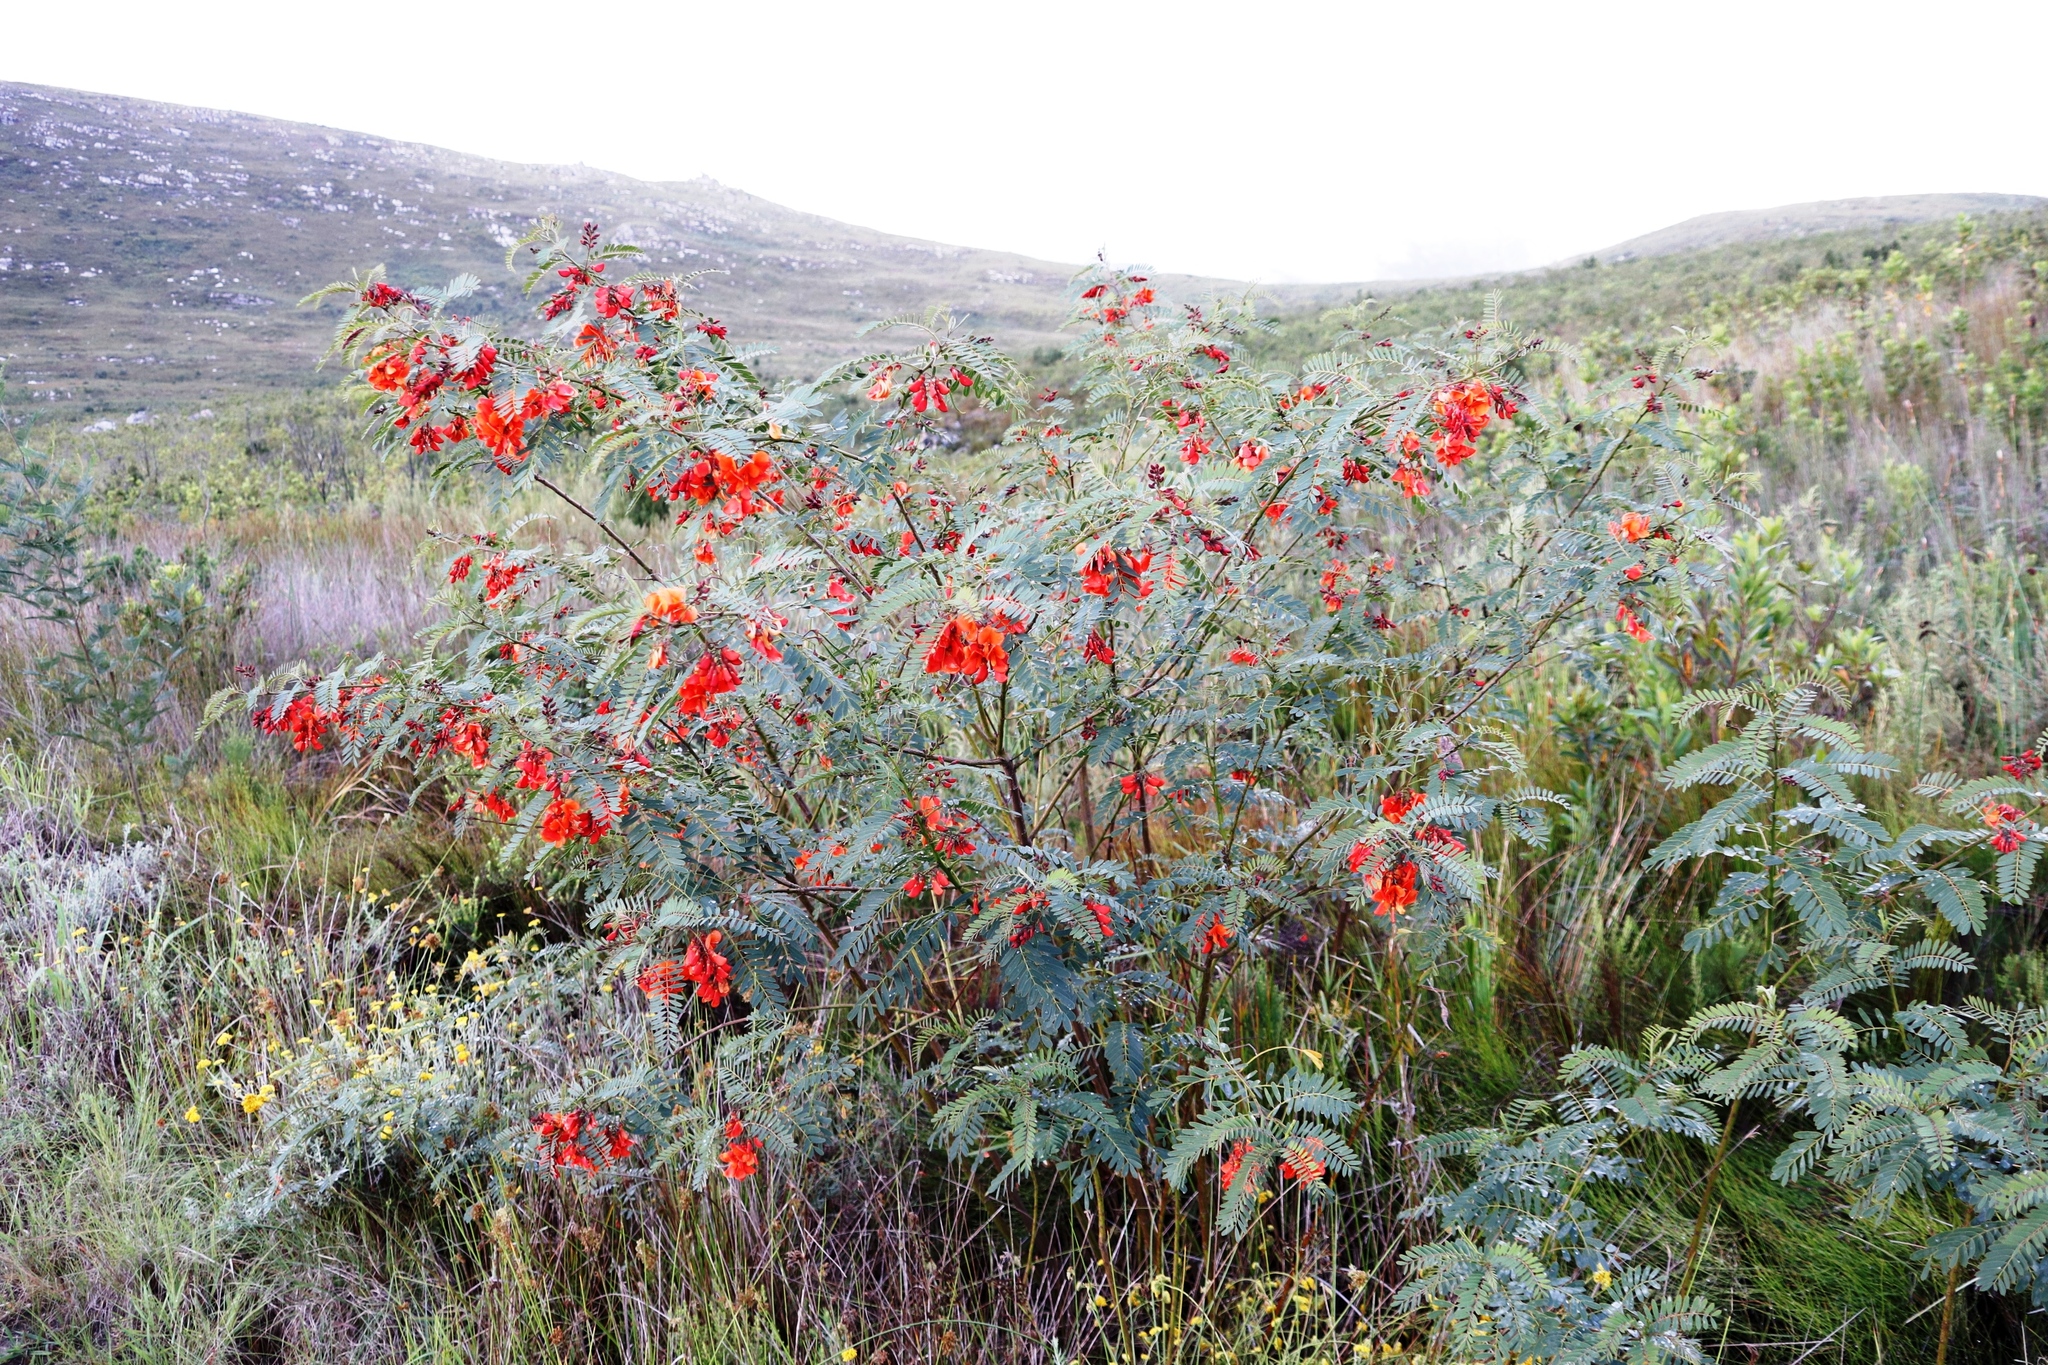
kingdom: Plantae
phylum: Tracheophyta
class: Magnoliopsida
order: Fabales
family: Fabaceae
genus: Sesbania
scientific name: Sesbania punicea
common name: Rattlebox
